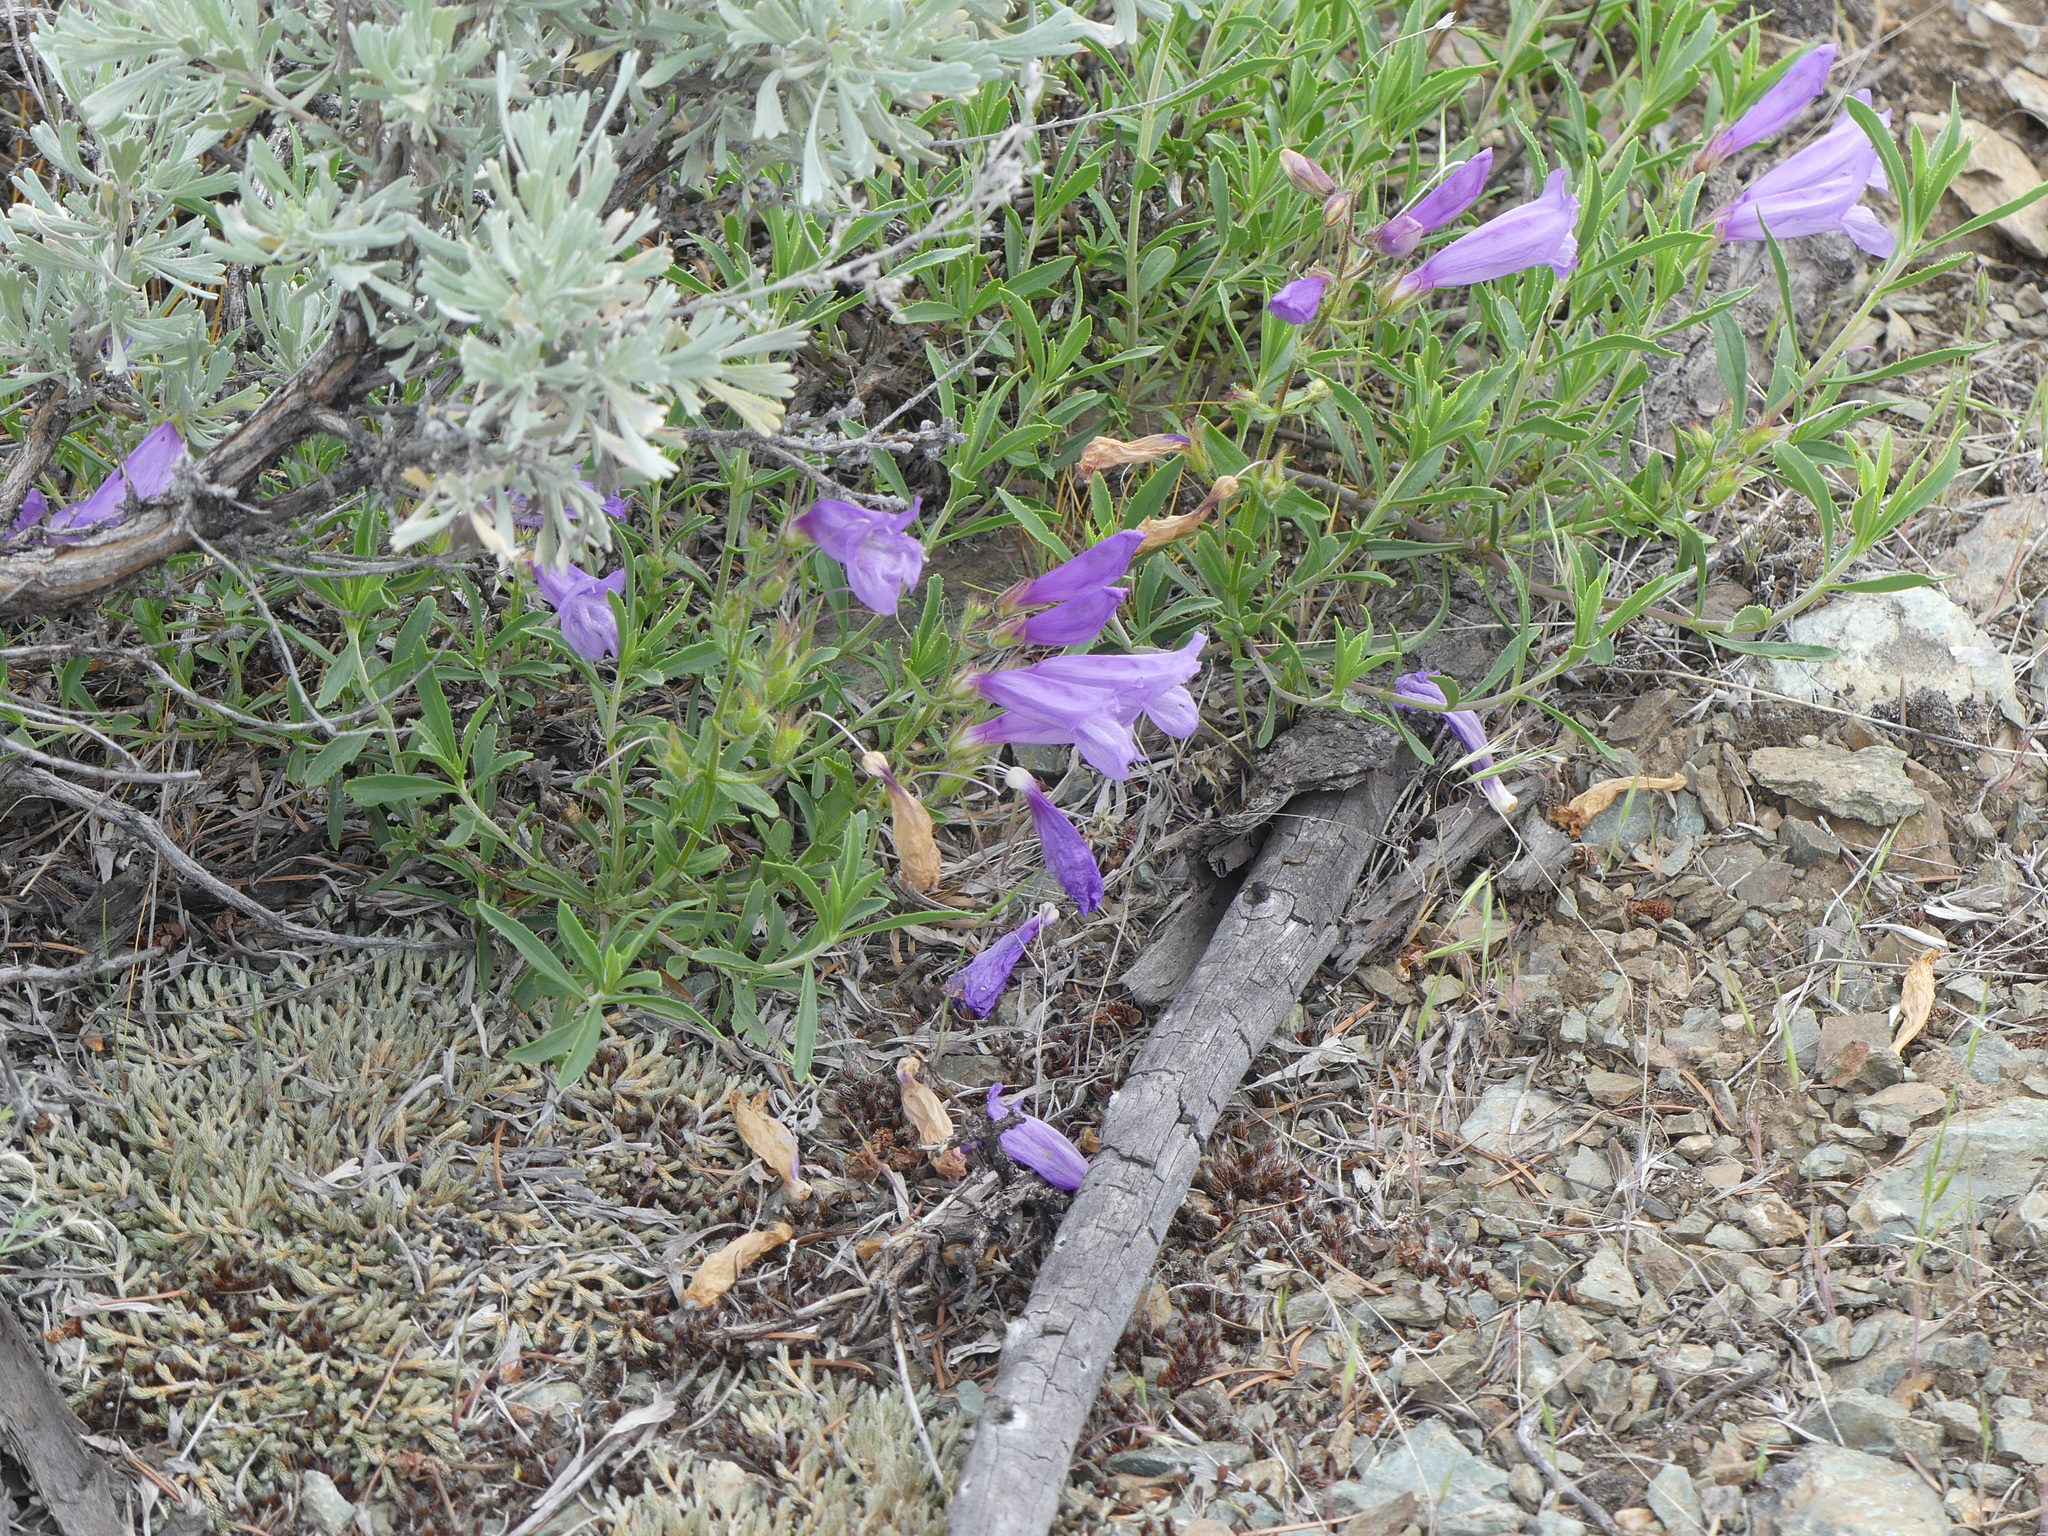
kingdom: Plantae
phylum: Tracheophyta
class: Magnoliopsida
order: Lamiales
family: Plantaginaceae
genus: Penstemon
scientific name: Penstemon fruticosus
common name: Bush penstemon
